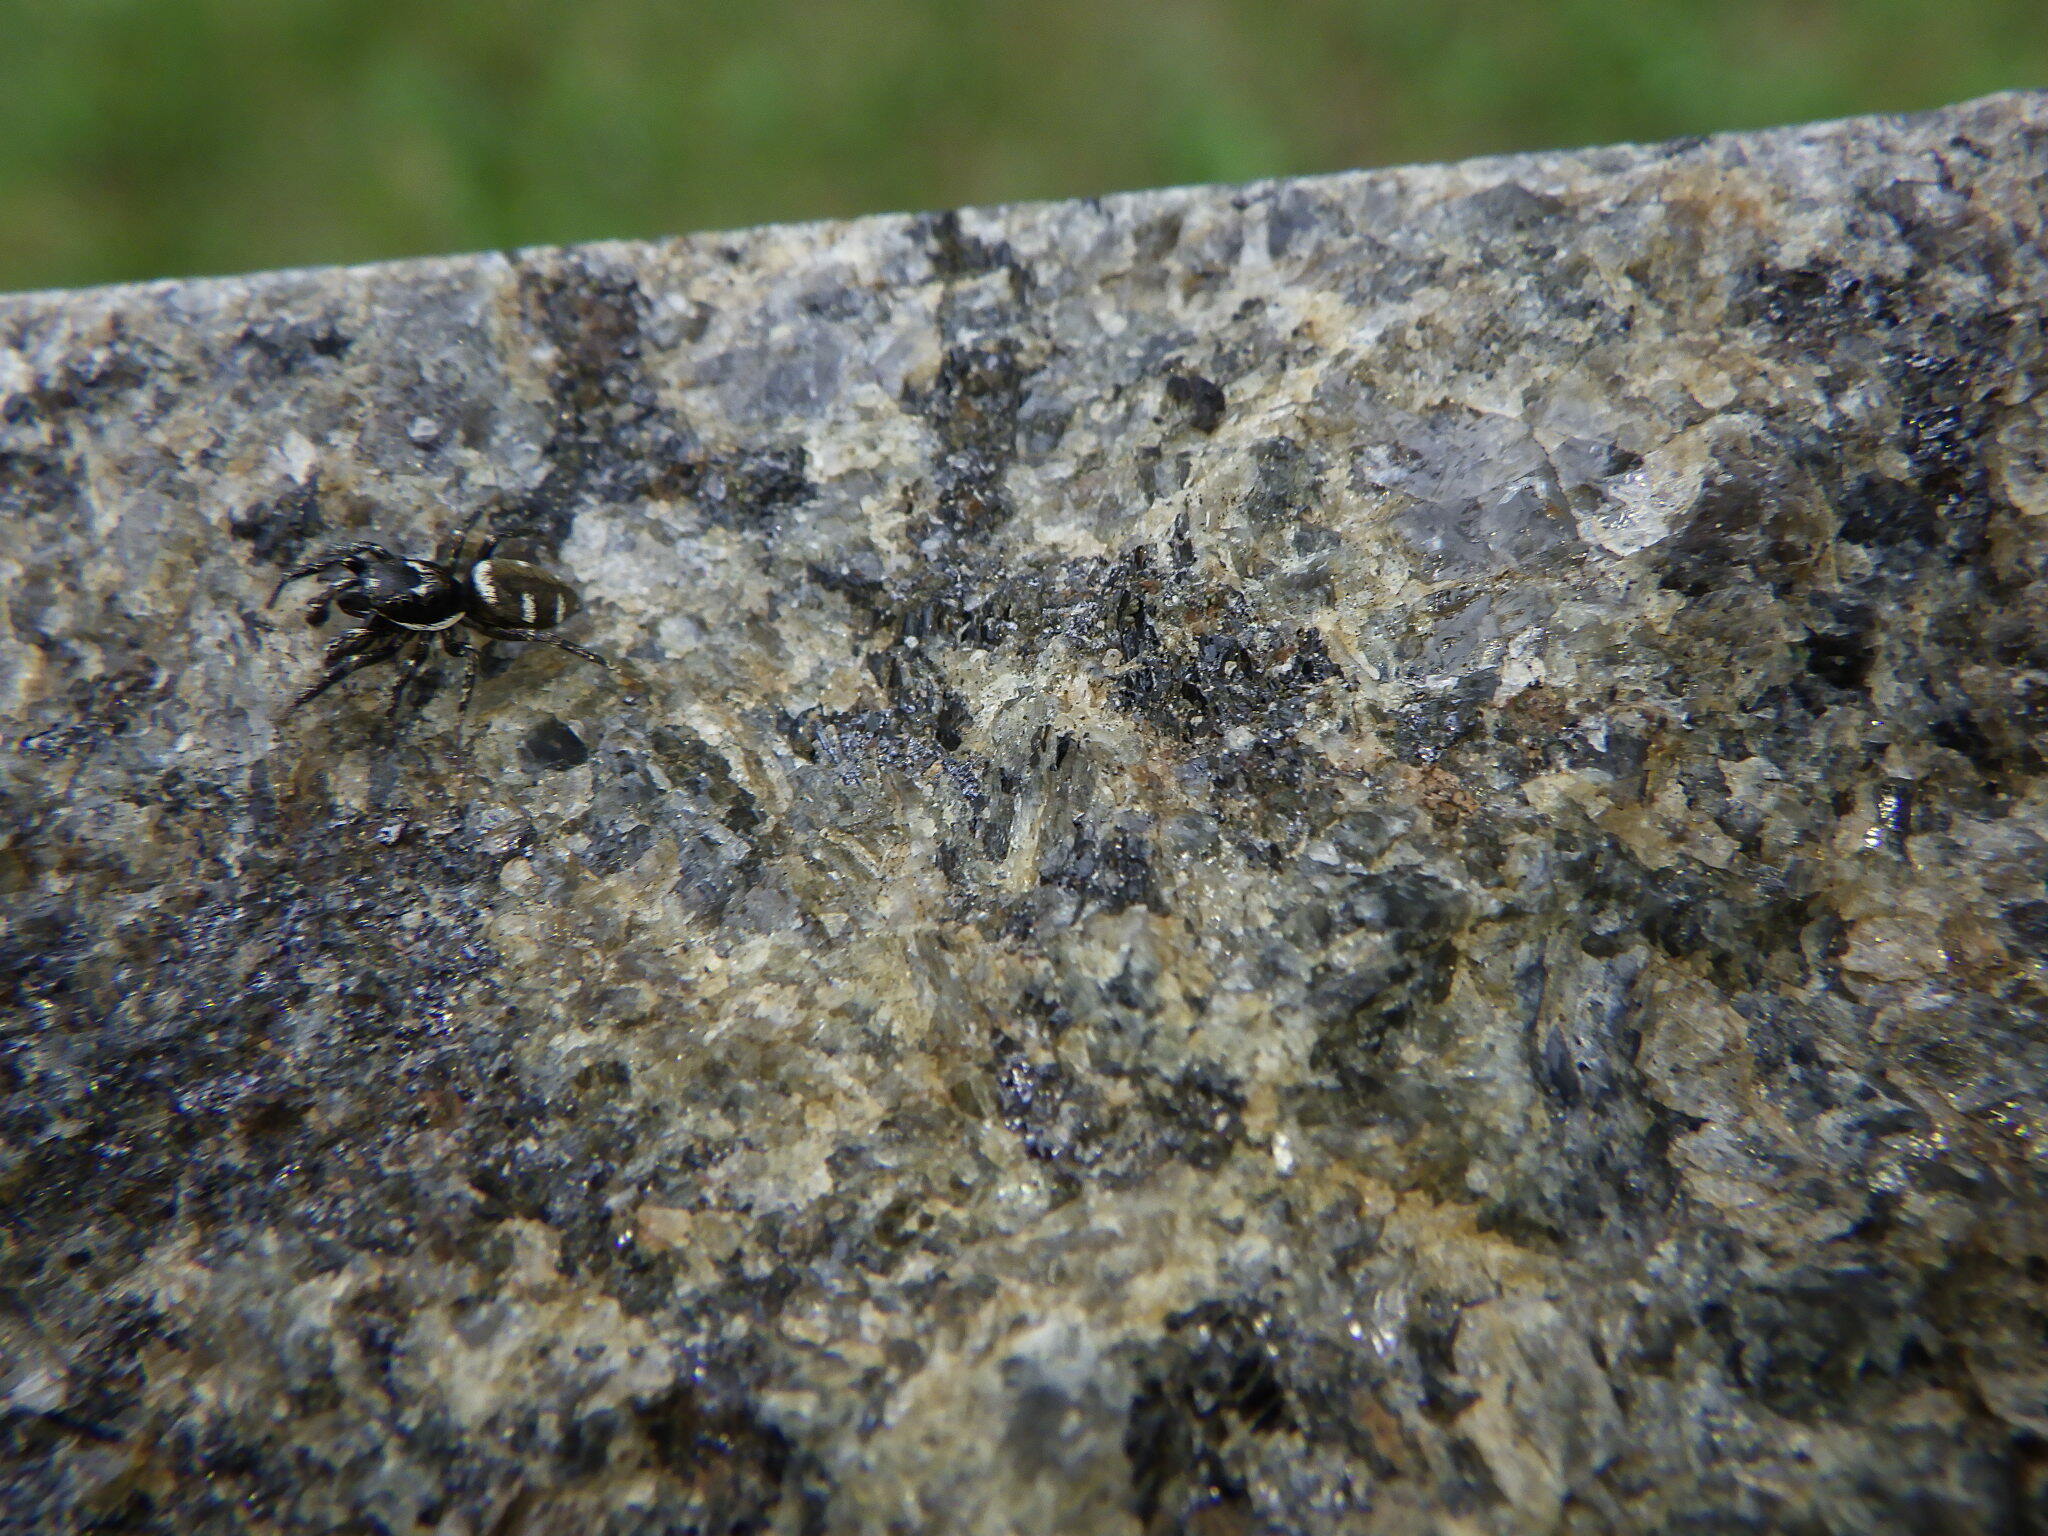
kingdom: Animalia
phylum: Arthropoda
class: Arachnida
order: Araneae
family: Salticidae
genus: Salticus
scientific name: Salticus scenicus
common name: Zebra jumper
